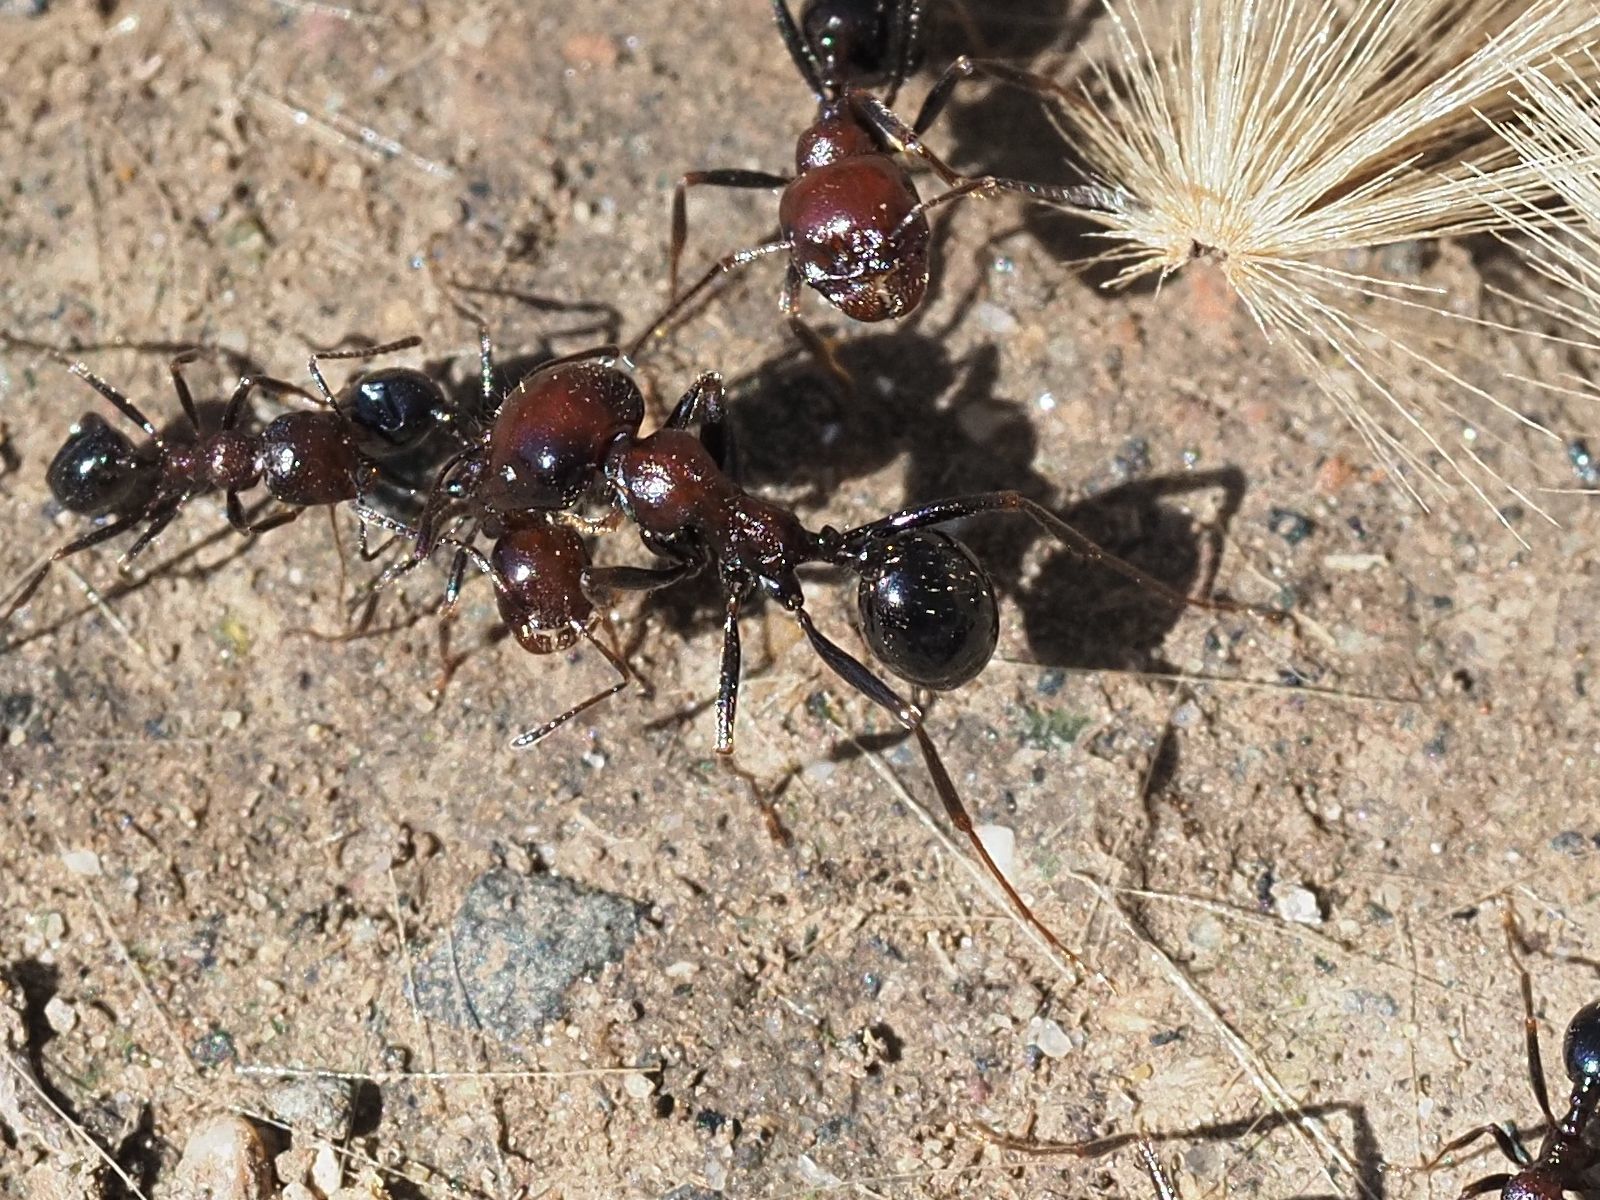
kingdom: Animalia
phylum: Arthropoda
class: Insecta
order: Hymenoptera
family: Formicidae
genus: Messor
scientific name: Messor minor
